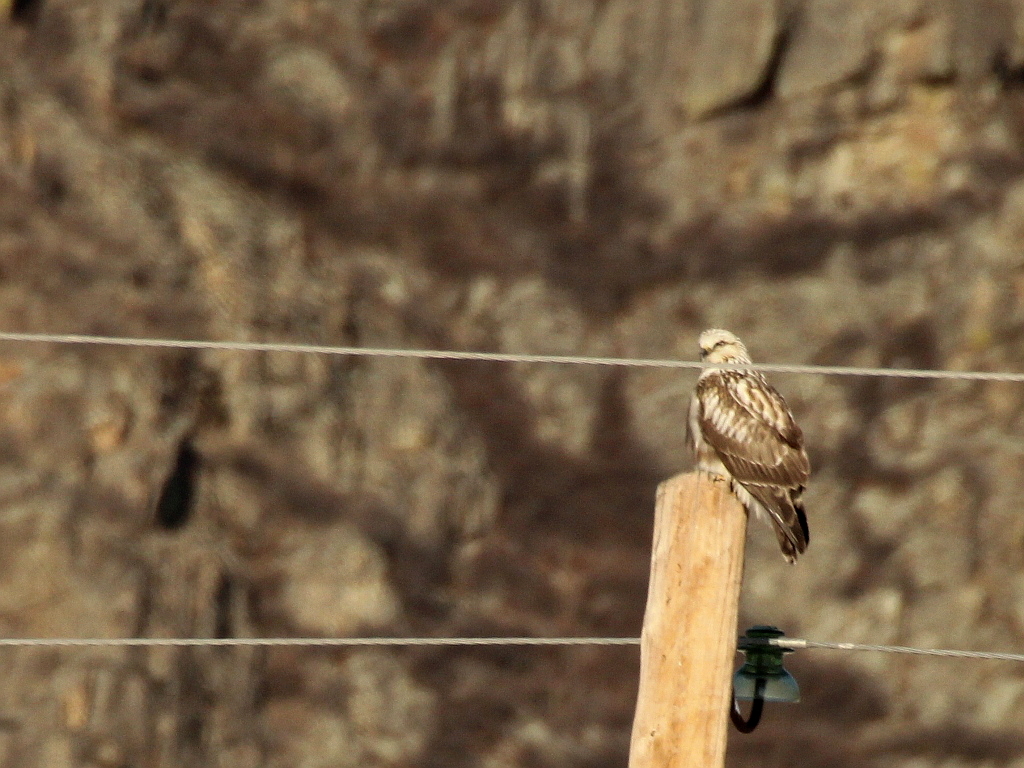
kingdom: Animalia
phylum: Chordata
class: Aves
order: Accipitriformes
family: Accipitridae
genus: Buteo
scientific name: Buteo lagopus
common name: Rough-legged buzzard
